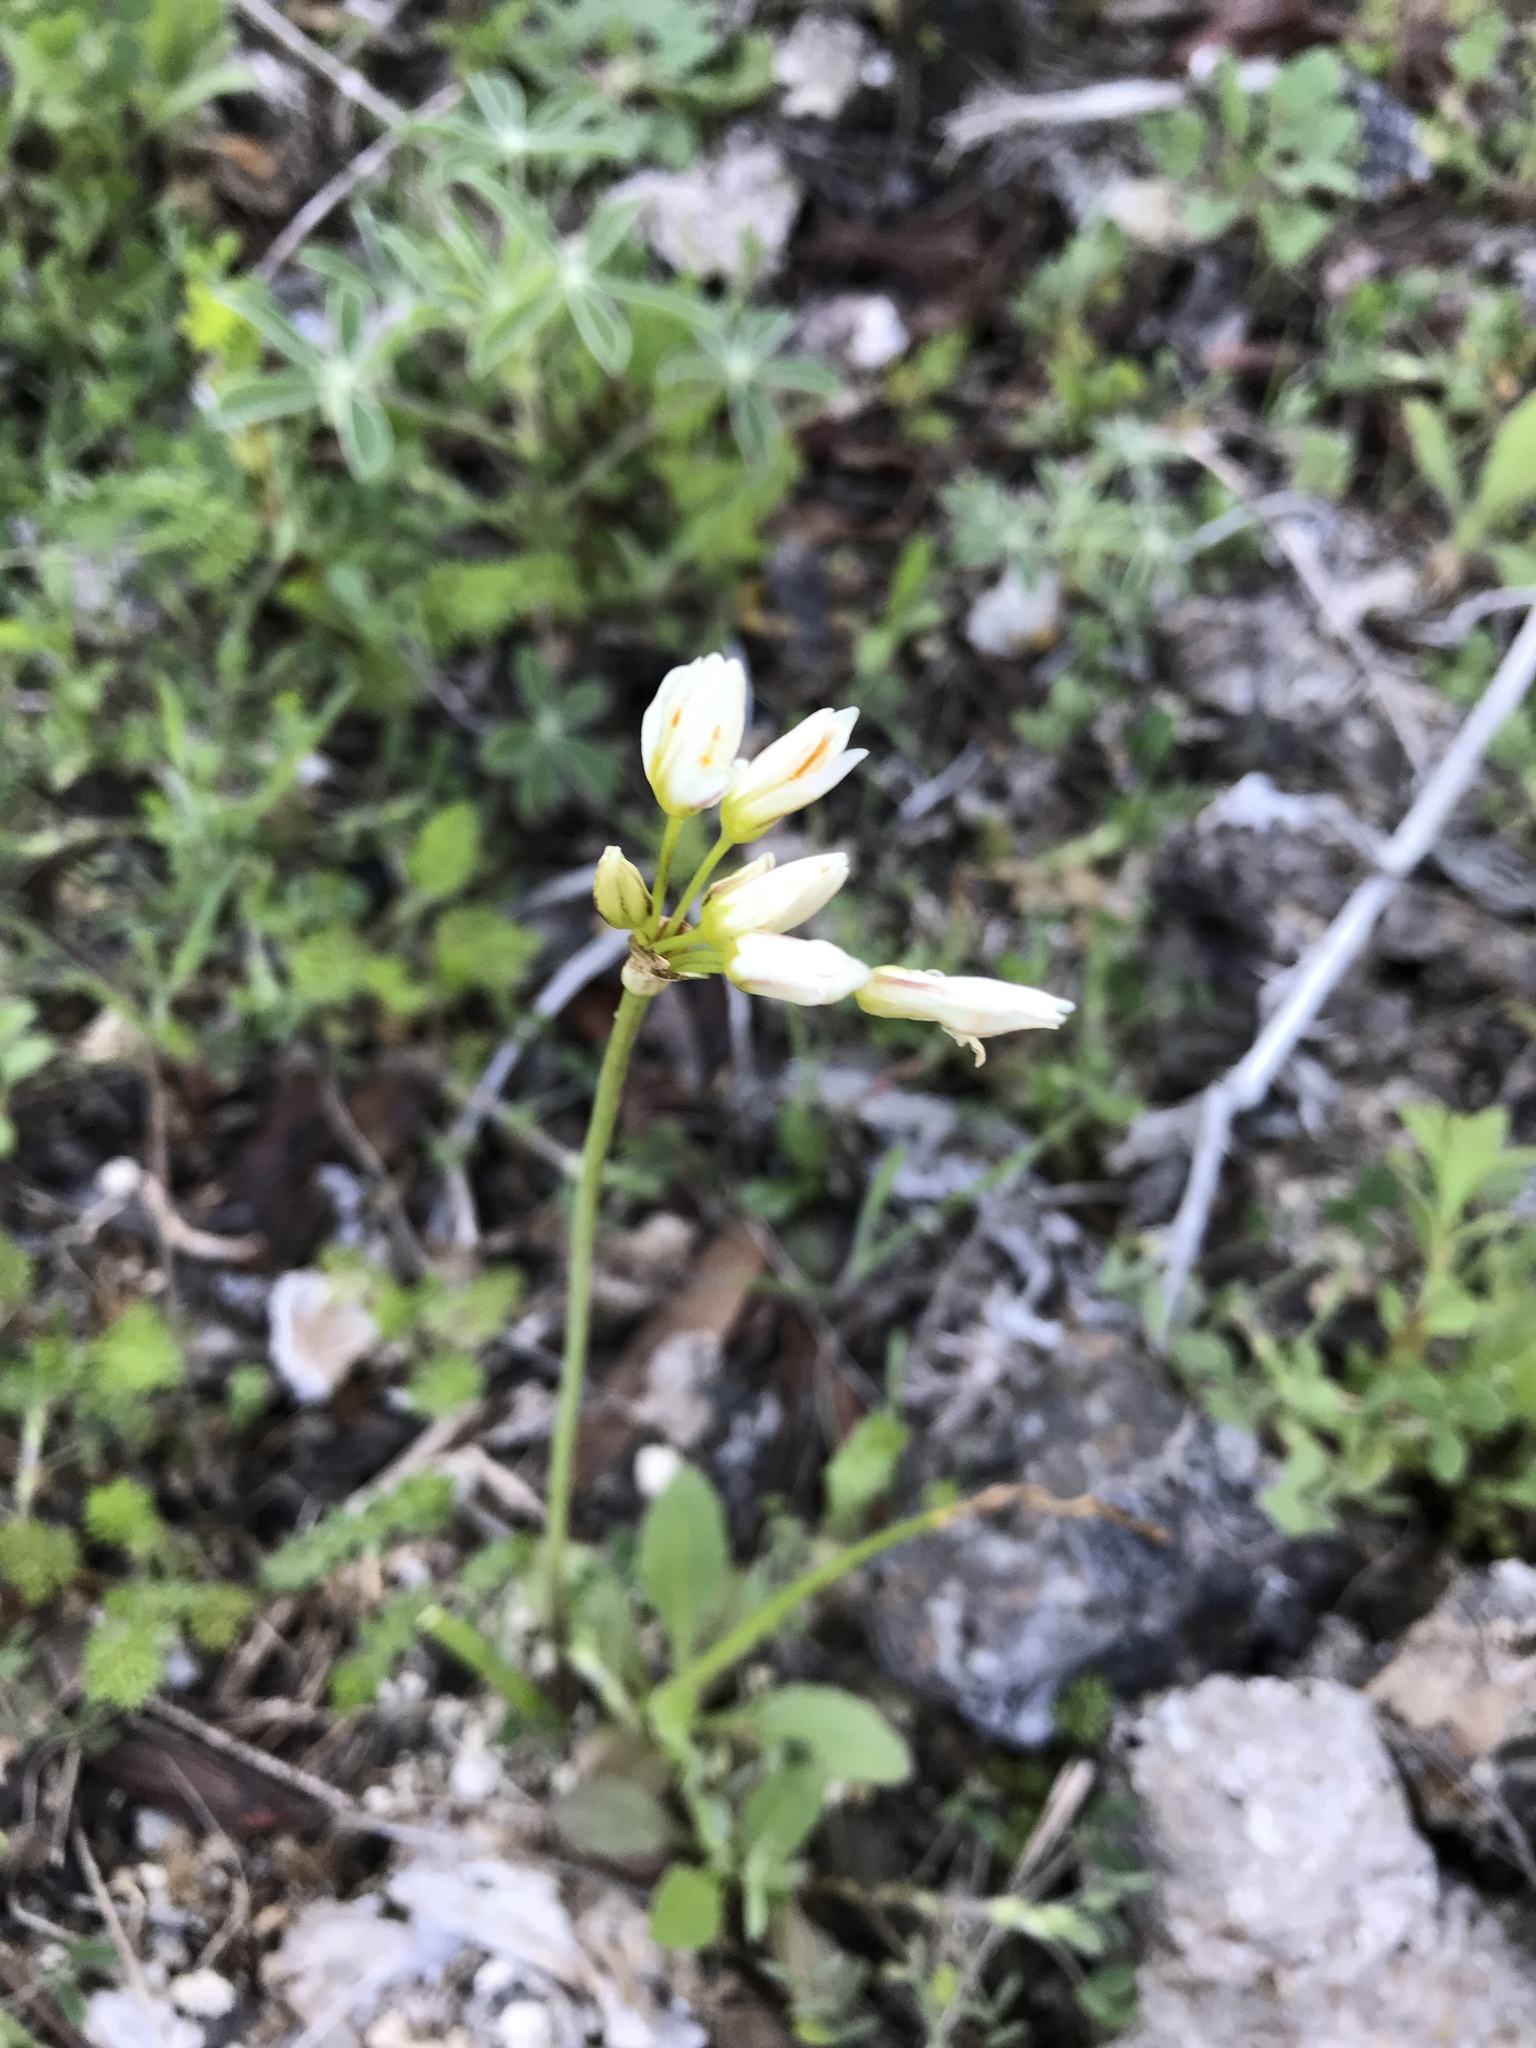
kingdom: Plantae
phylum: Tracheophyta
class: Liliopsida
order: Asparagales
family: Amaryllidaceae
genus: Nothoscordum
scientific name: Nothoscordum bivalve
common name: Crow-poison
